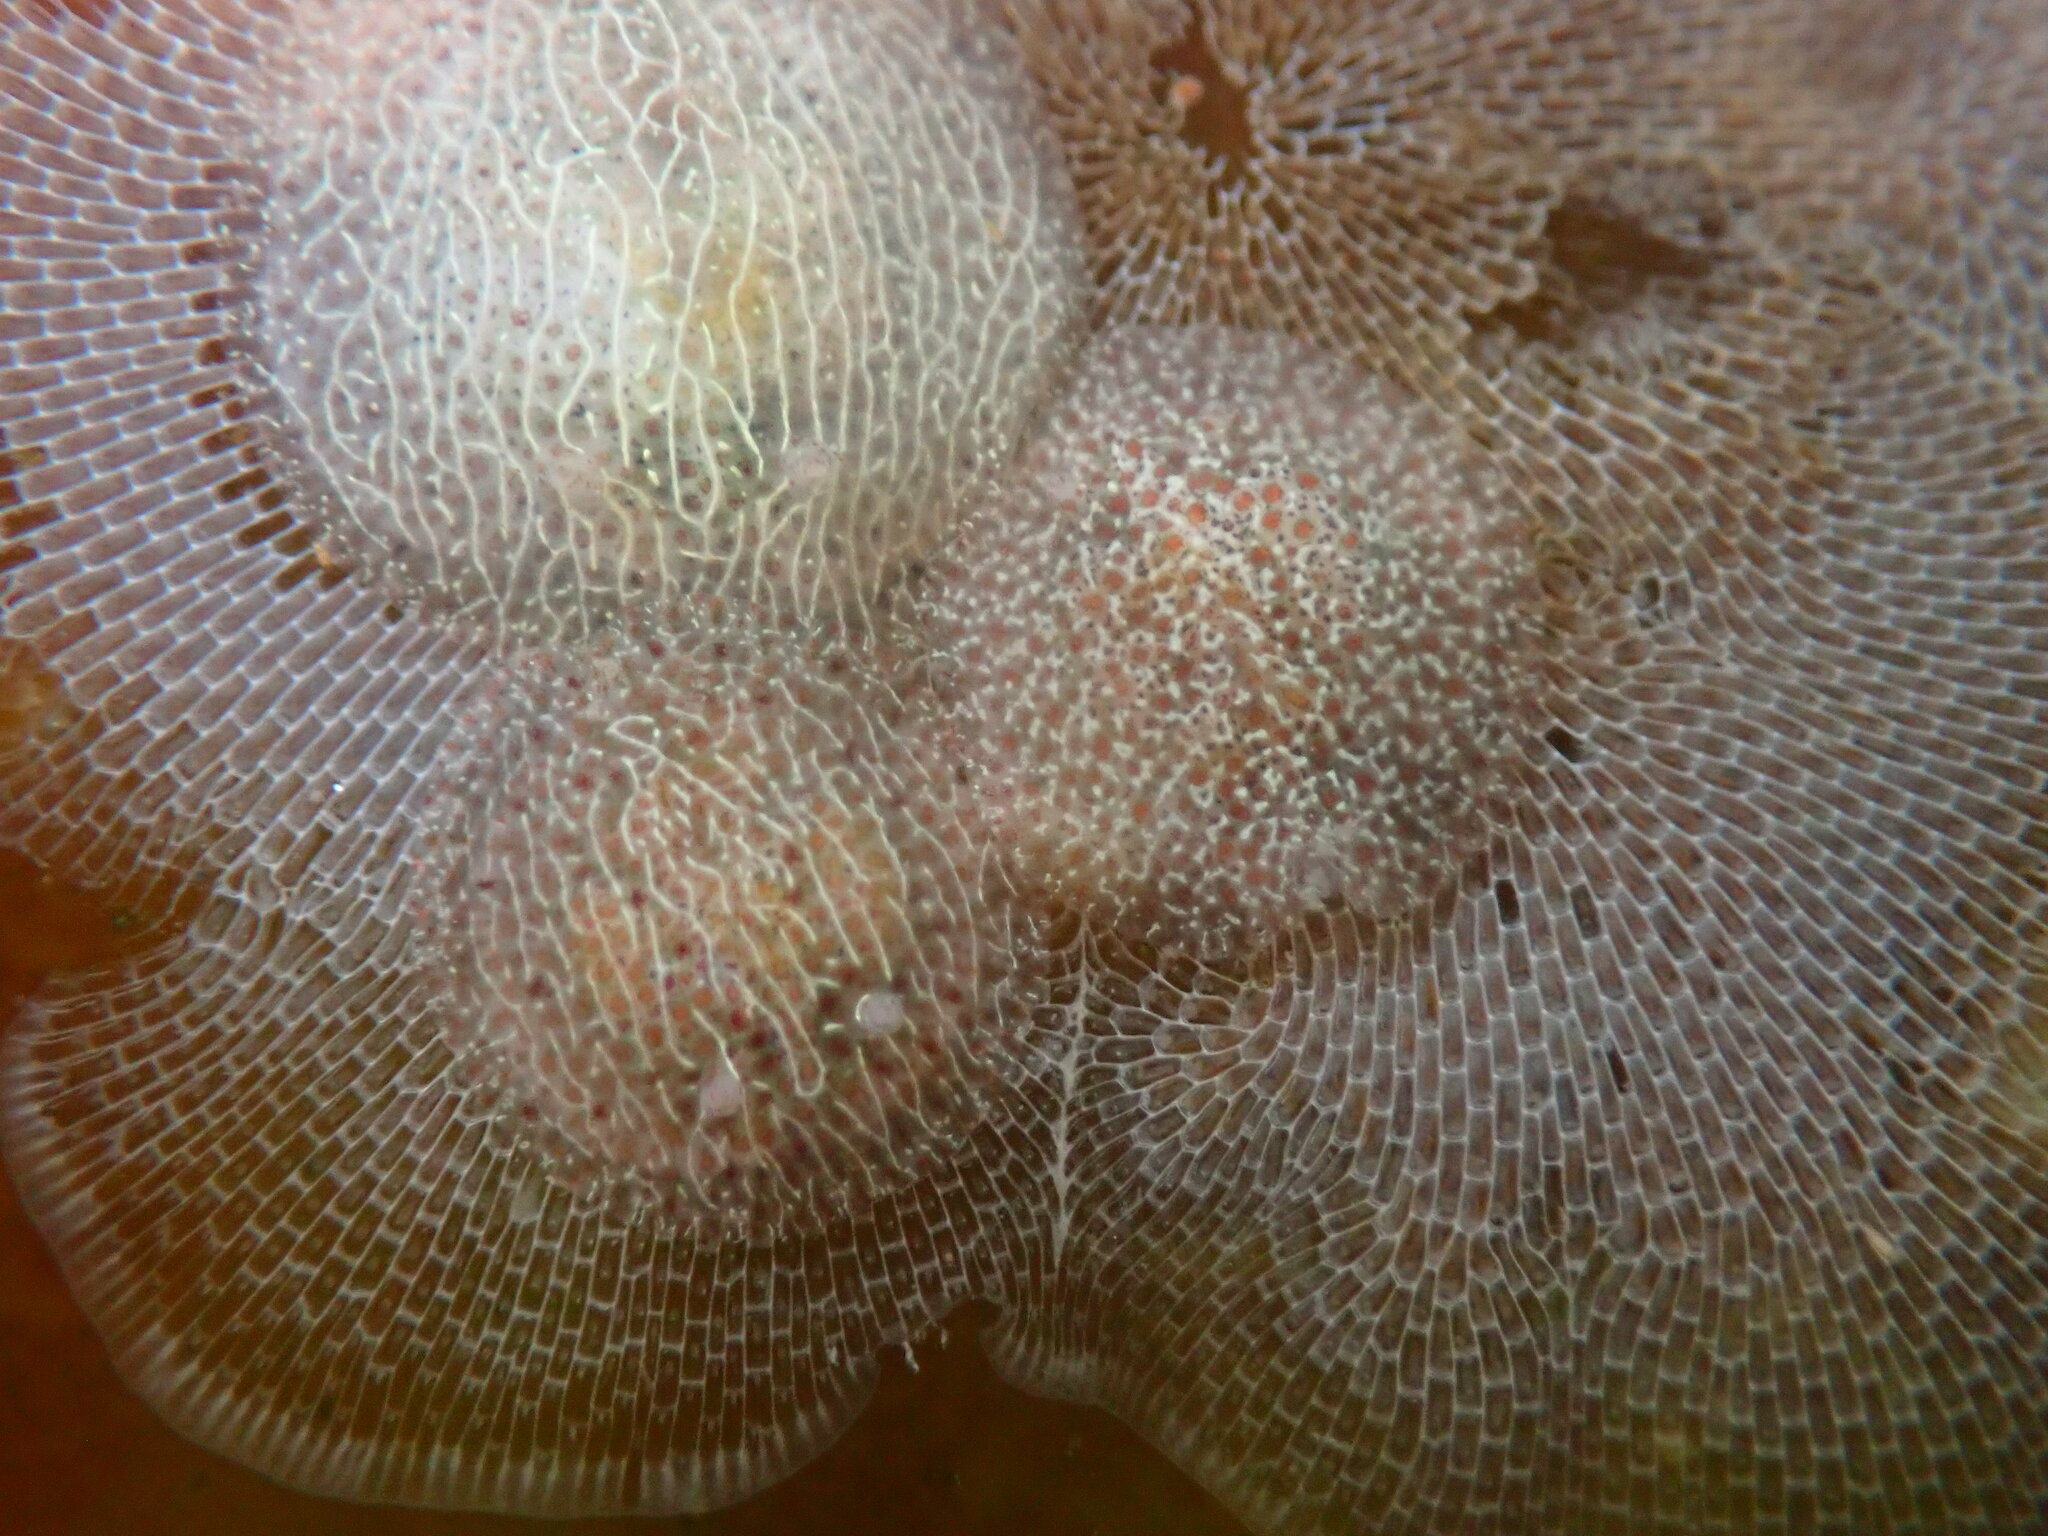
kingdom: Animalia
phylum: Mollusca
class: Gastropoda
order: Nudibranchia
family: Corambidae
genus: Corambe
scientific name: Corambe pacifica
